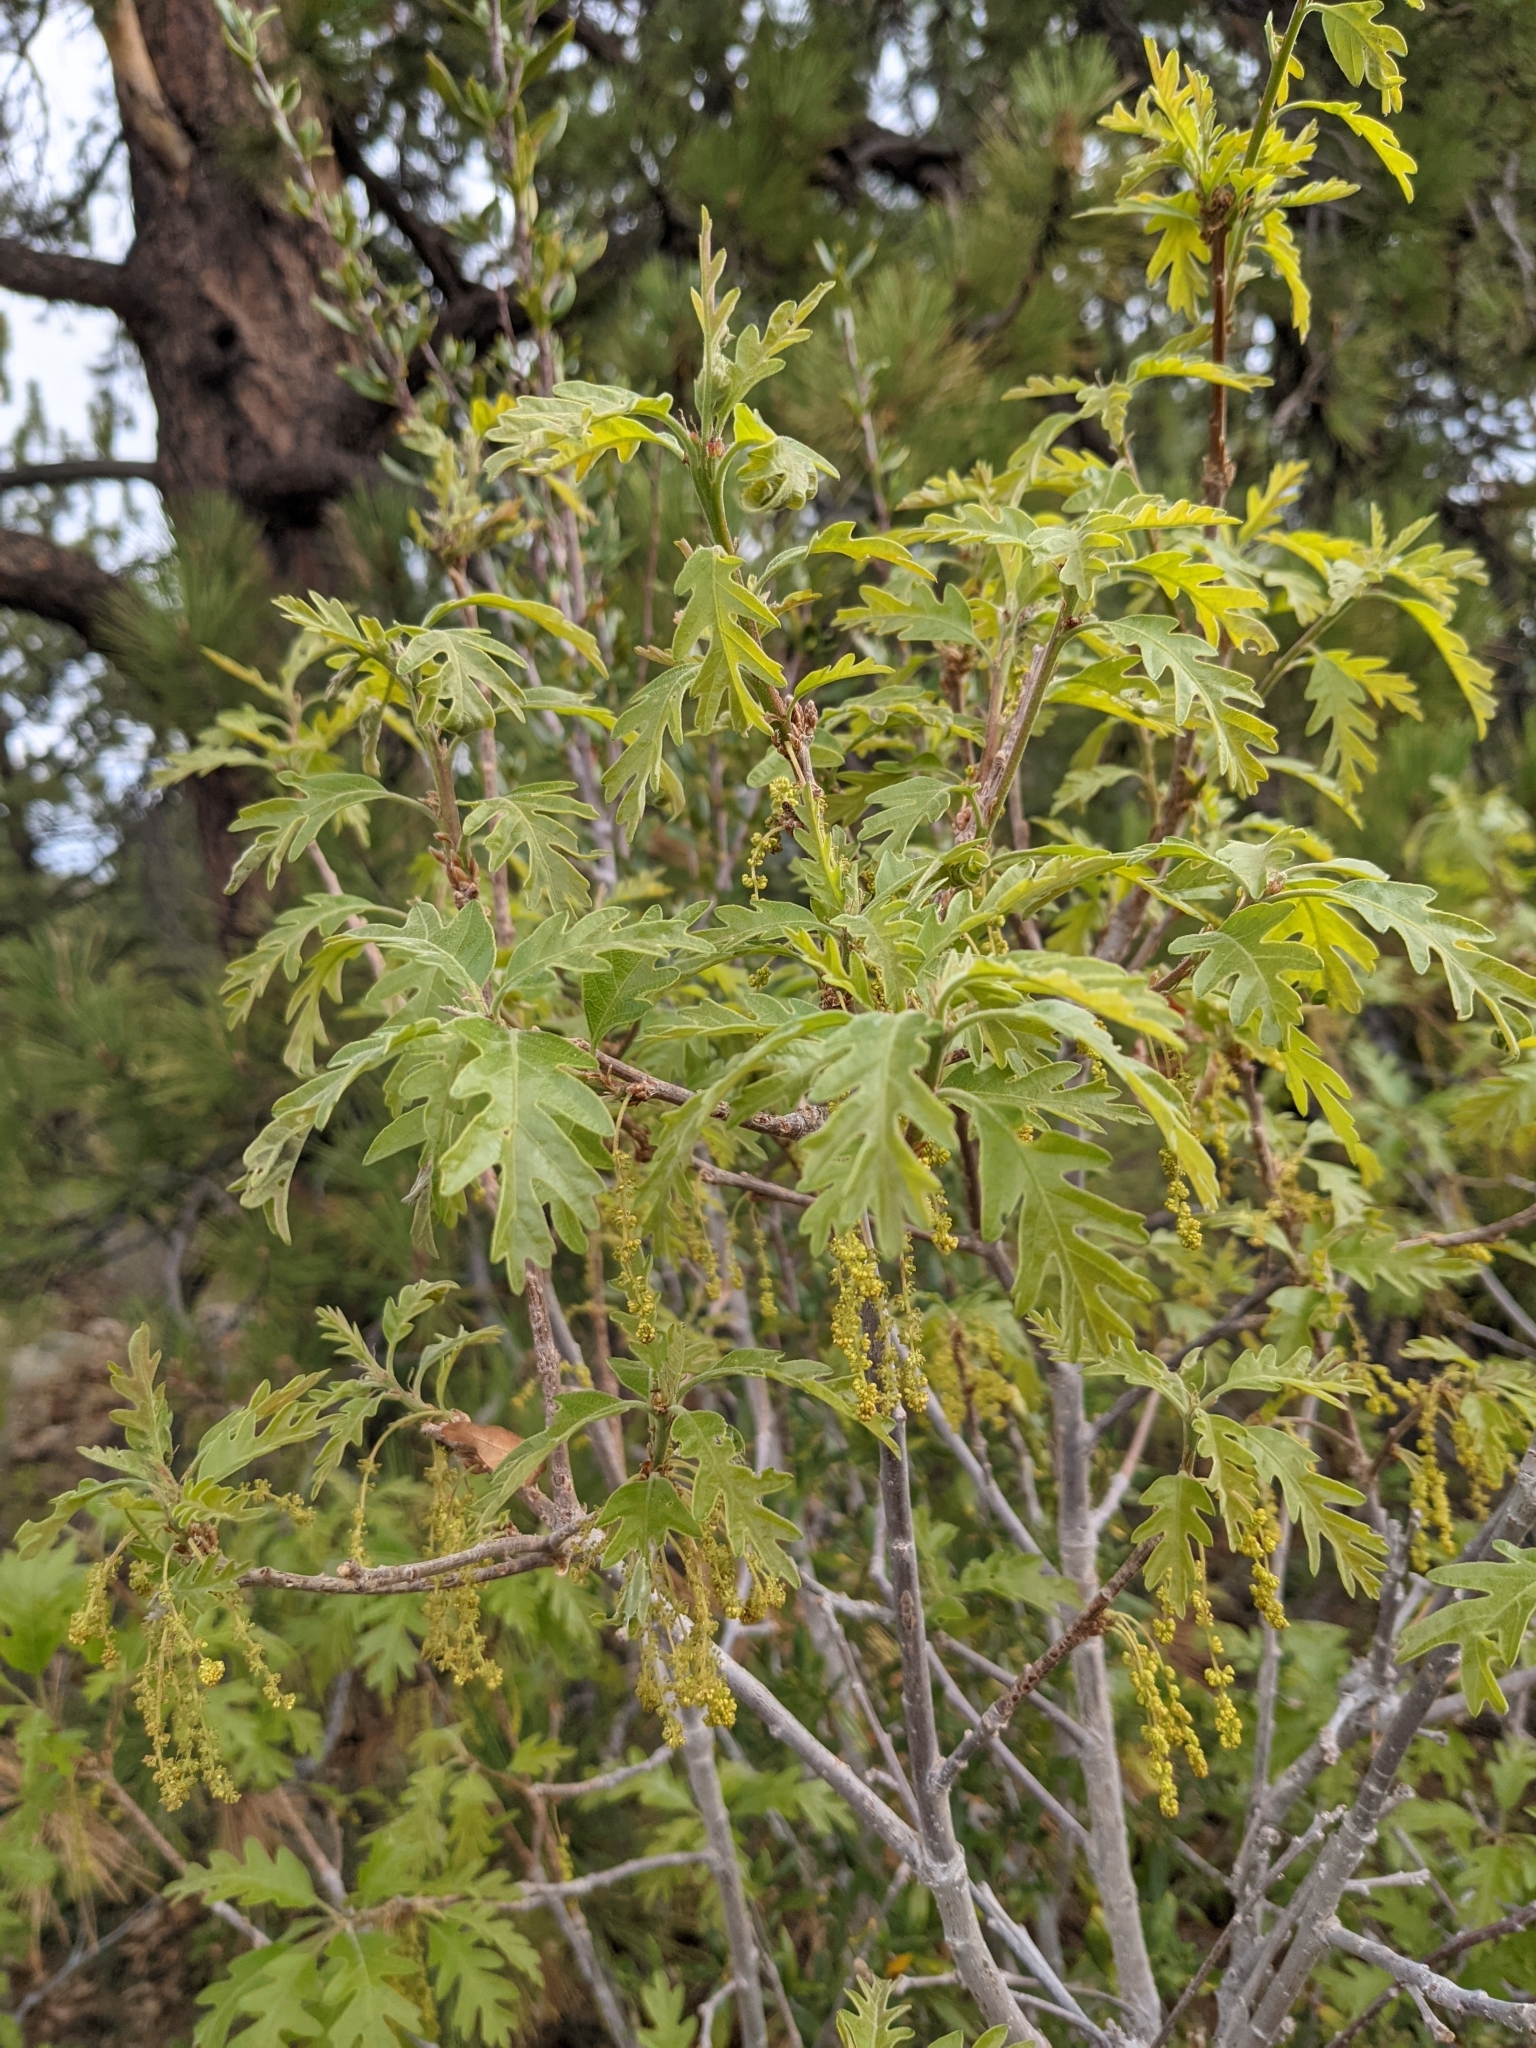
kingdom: Plantae
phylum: Tracheophyta
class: Magnoliopsida
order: Fagales
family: Fagaceae
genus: Quercus
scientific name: Quercus gambelii
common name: Gambel oak
